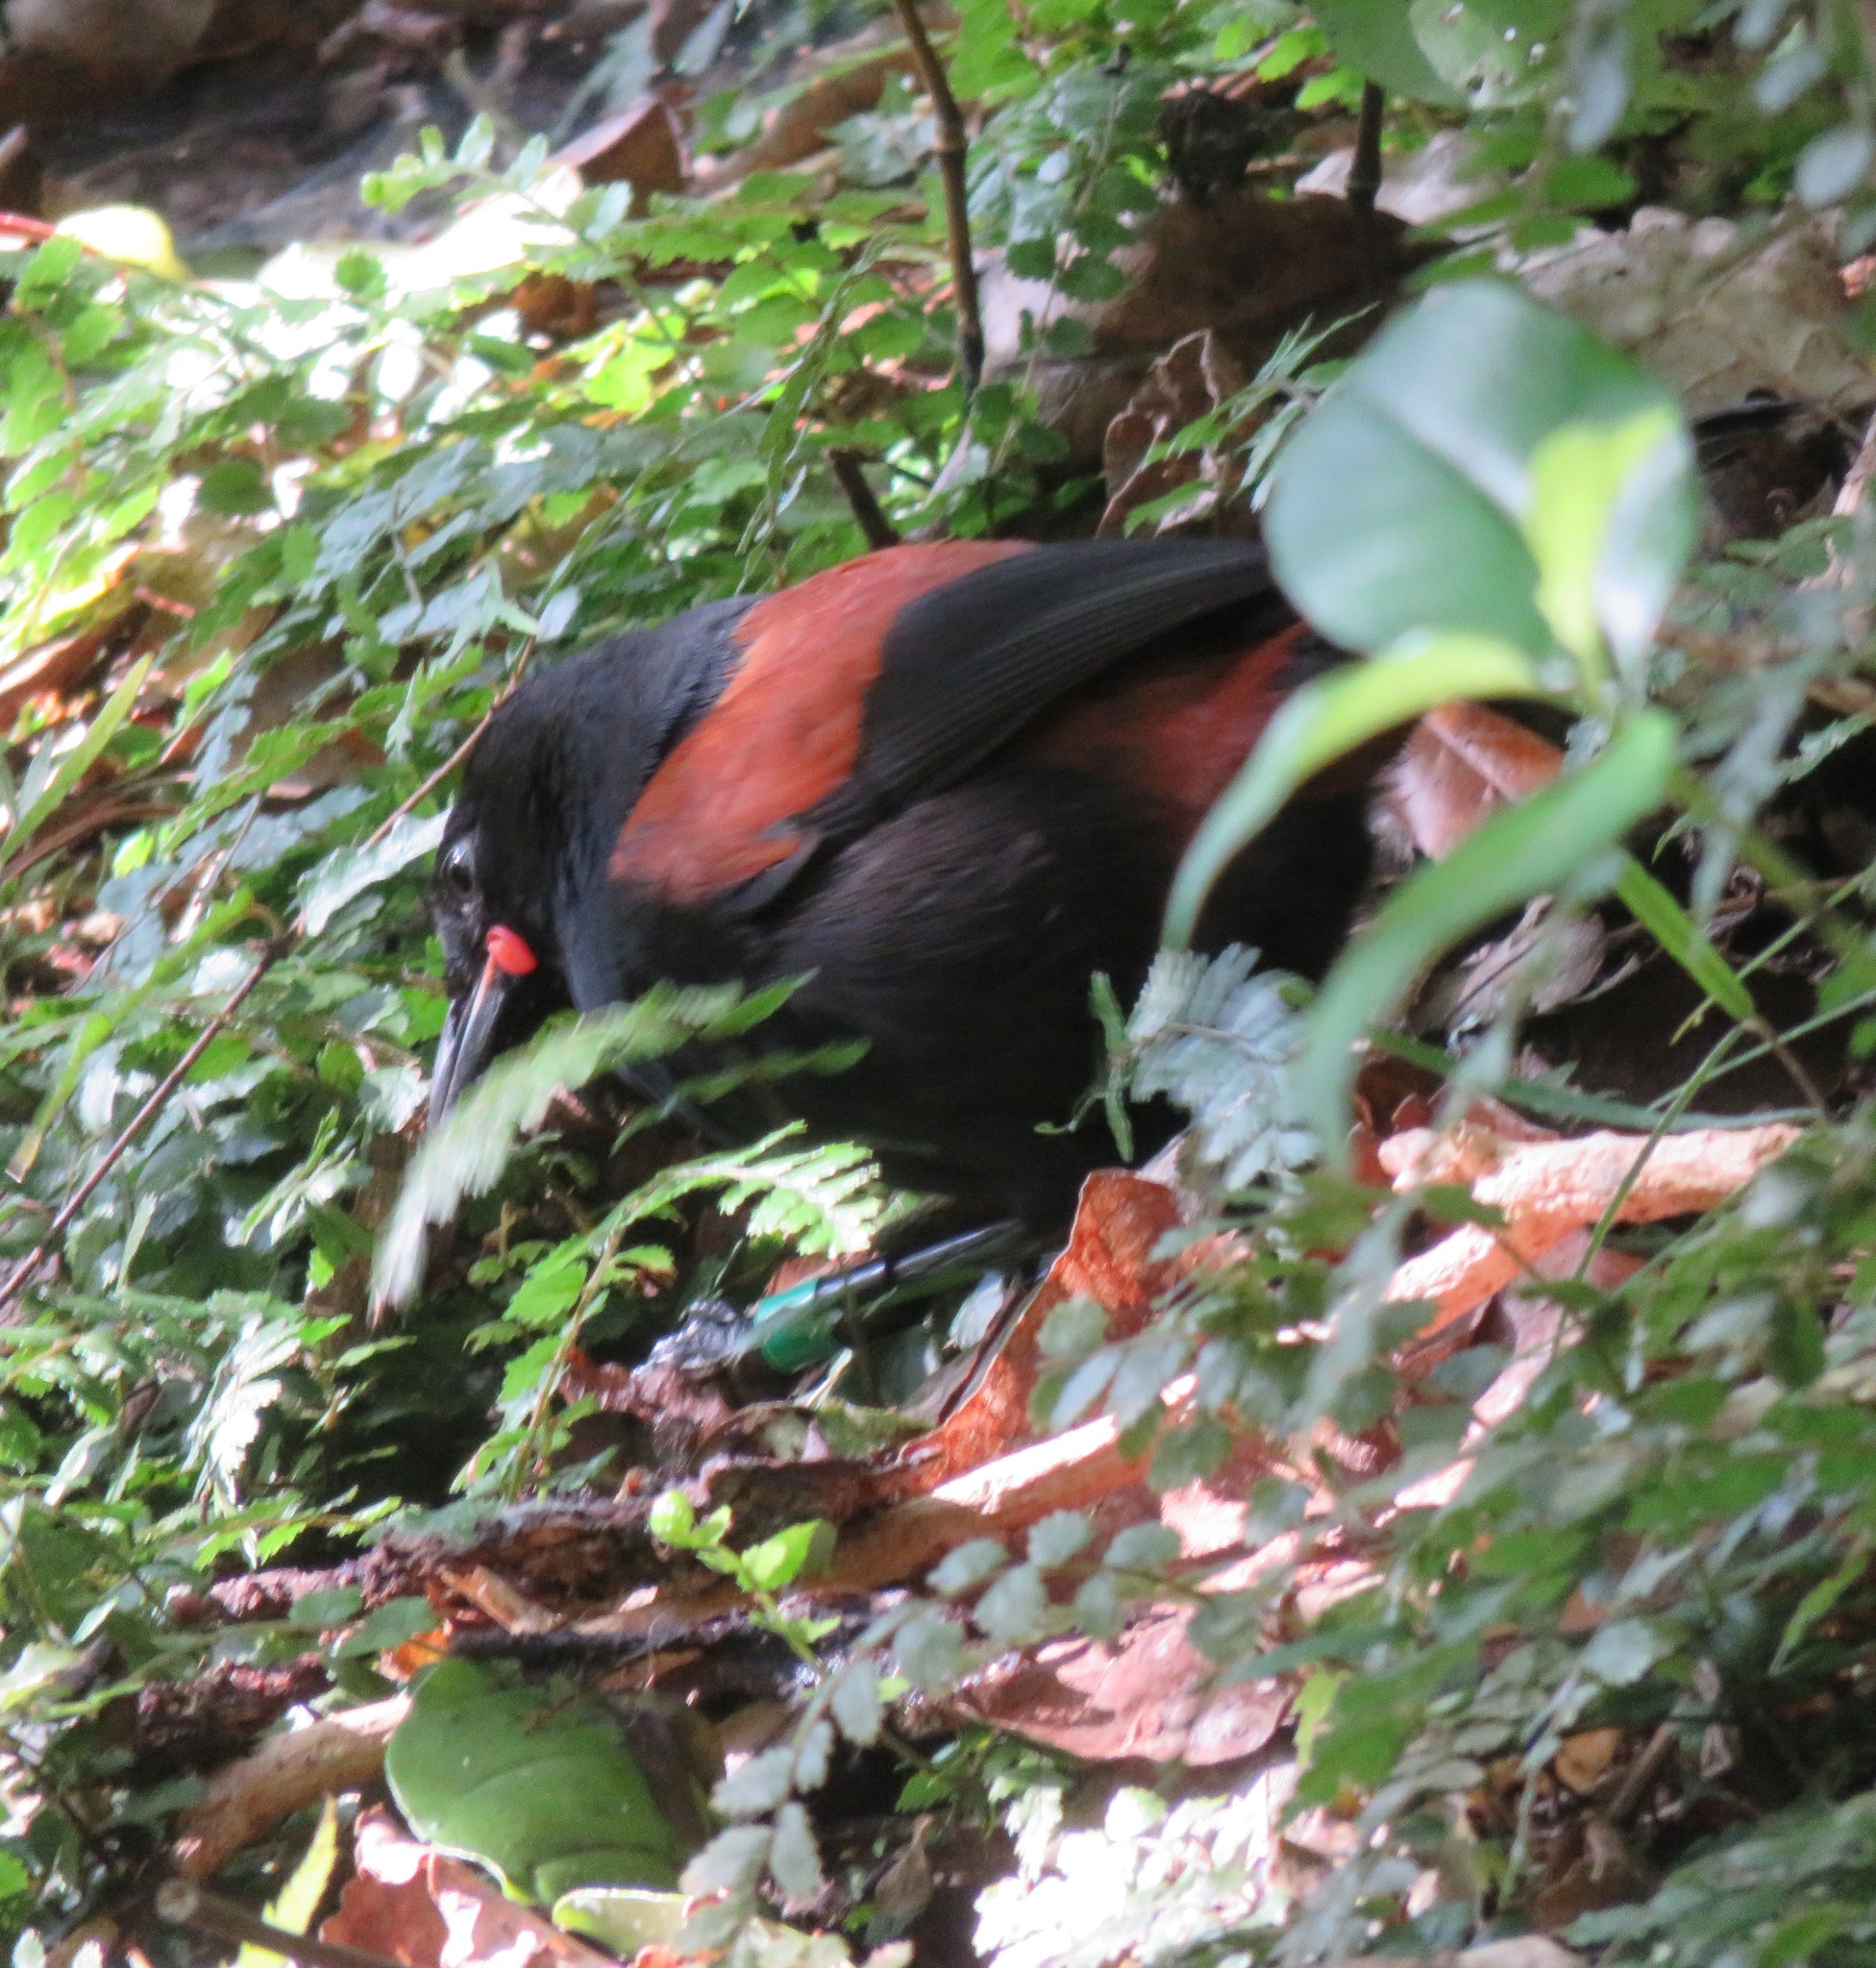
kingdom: Animalia
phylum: Chordata
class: Aves
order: Passeriformes
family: Callaeatidae
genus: Philesturnus
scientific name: Philesturnus carunculatus
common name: South island saddleback
